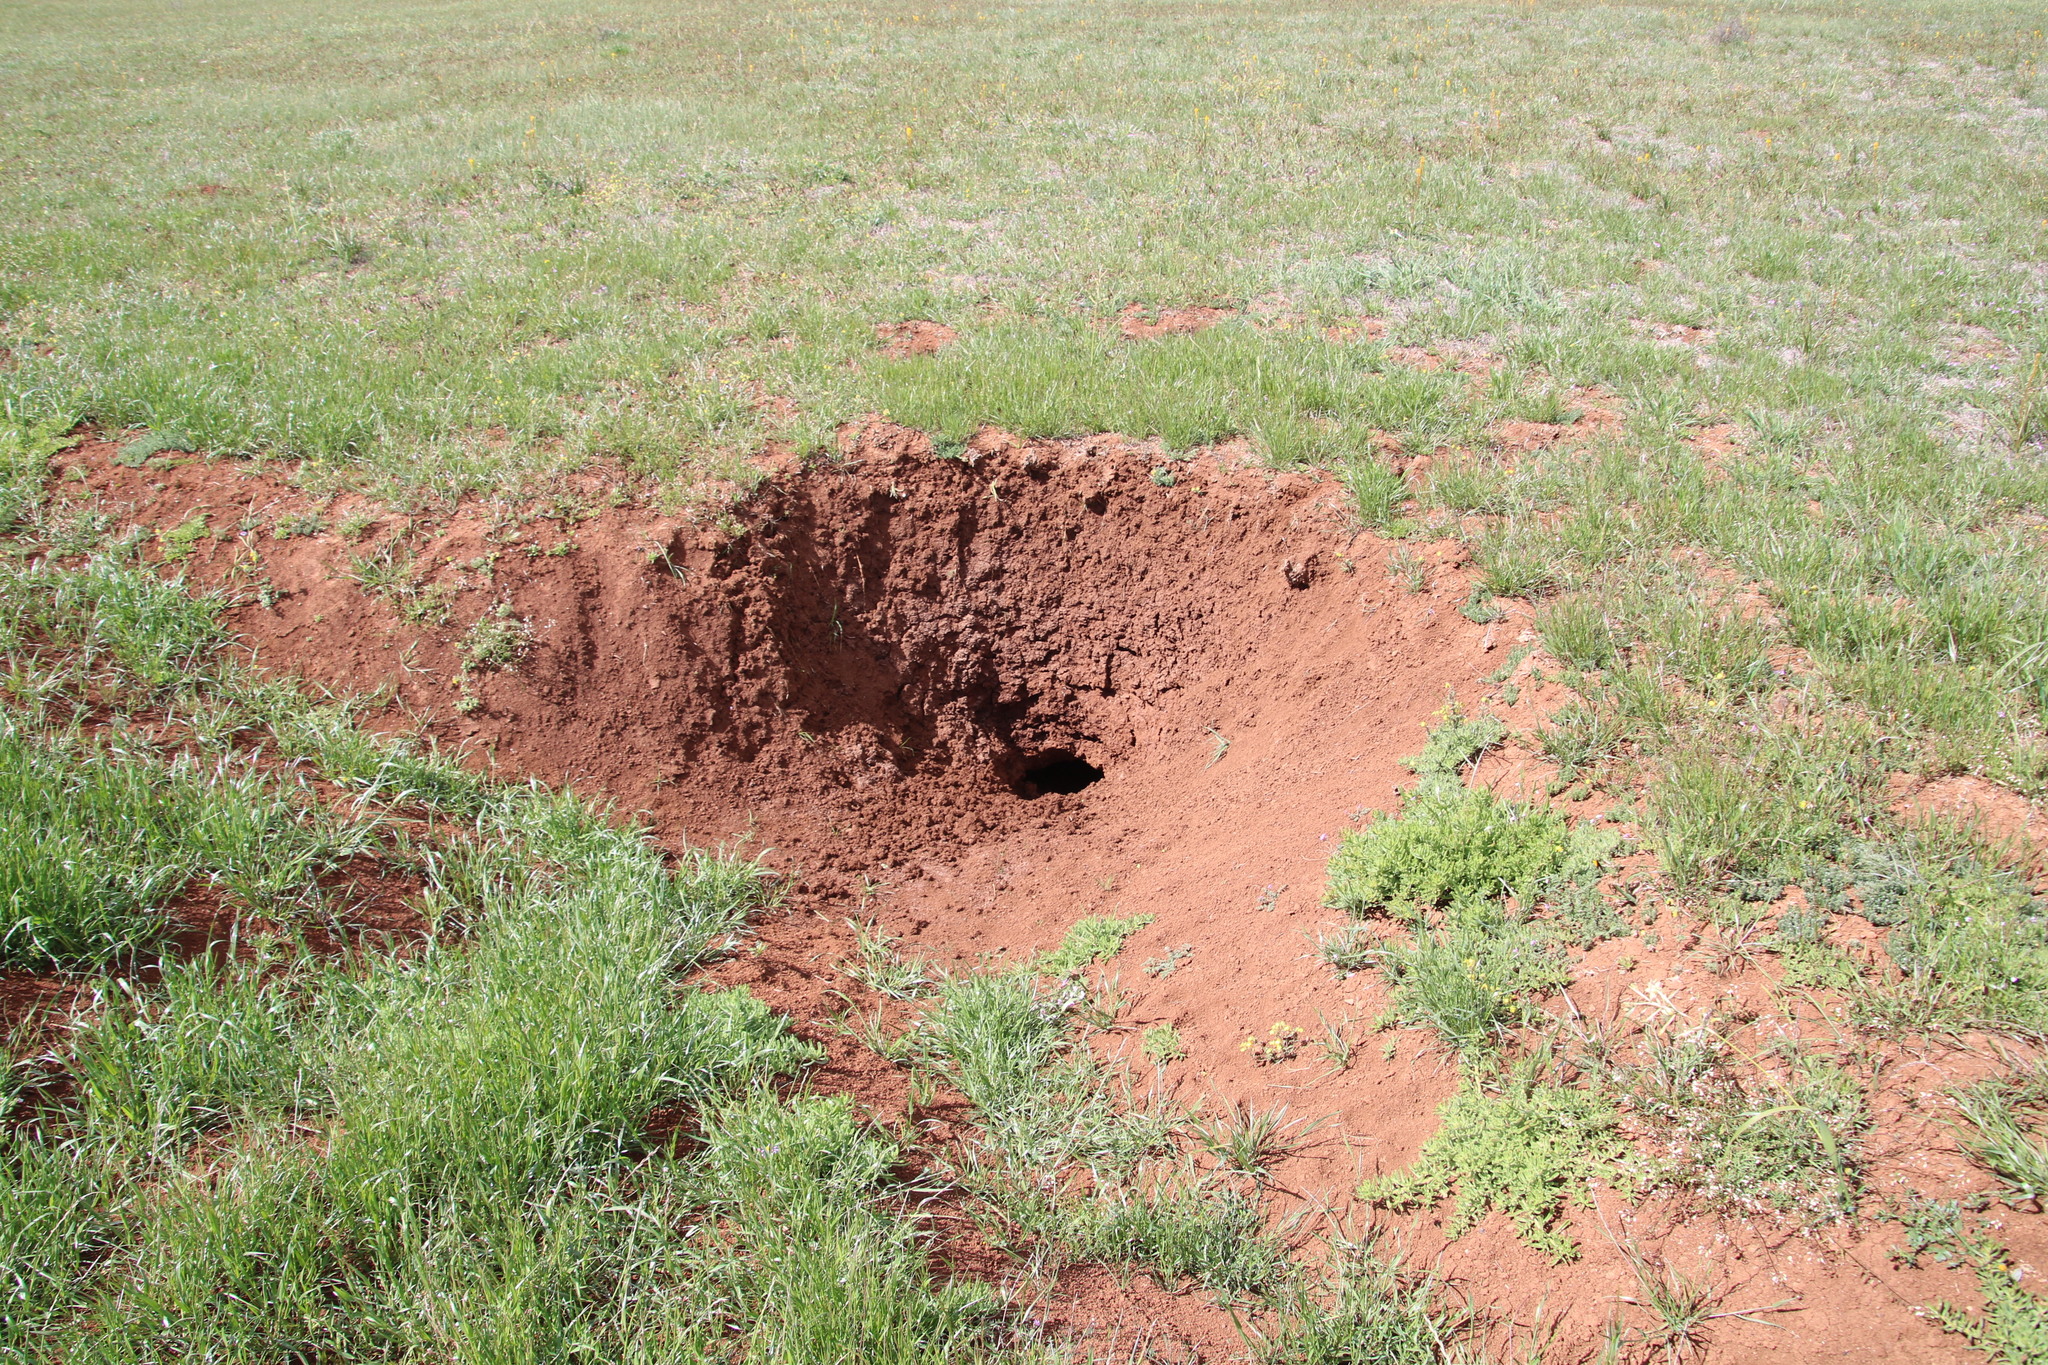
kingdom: Animalia
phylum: Chordata
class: Mammalia
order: Tubulidentata
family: Orycteropodidae
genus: Orycteropus
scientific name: Orycteropus afer
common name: Aardvark
